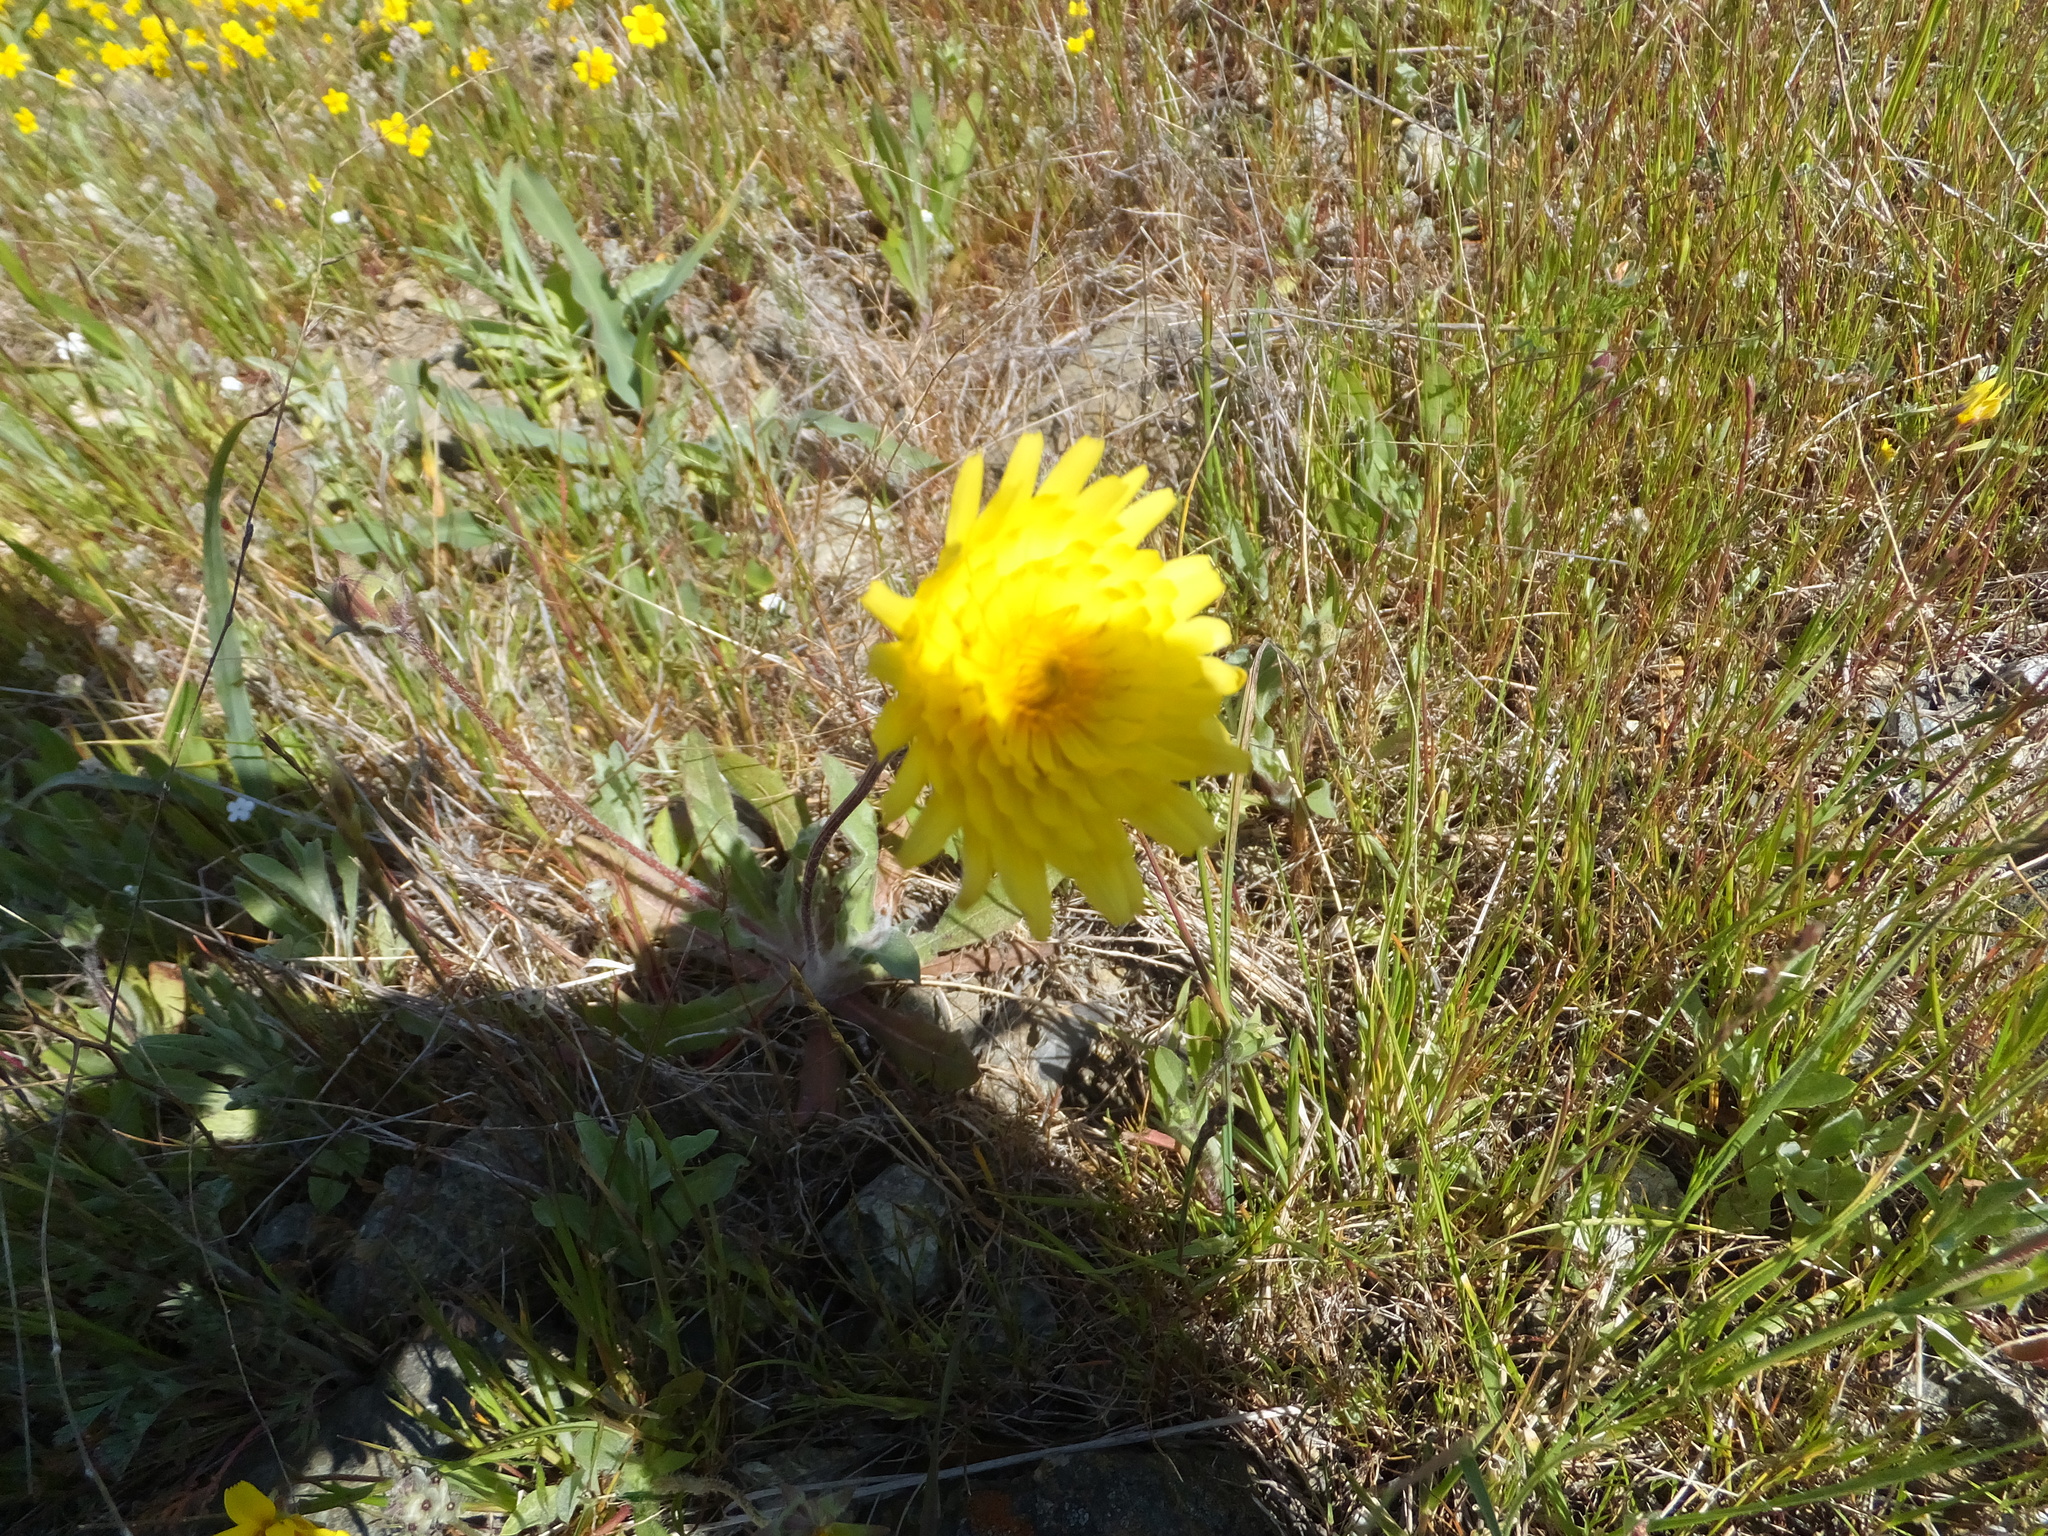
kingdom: Plantae
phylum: Tracheophyta
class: Magnoliopsida
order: Asterales
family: Asteraceae
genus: Agoseris
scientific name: Agoseris heterophylla
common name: Annual agoseris
